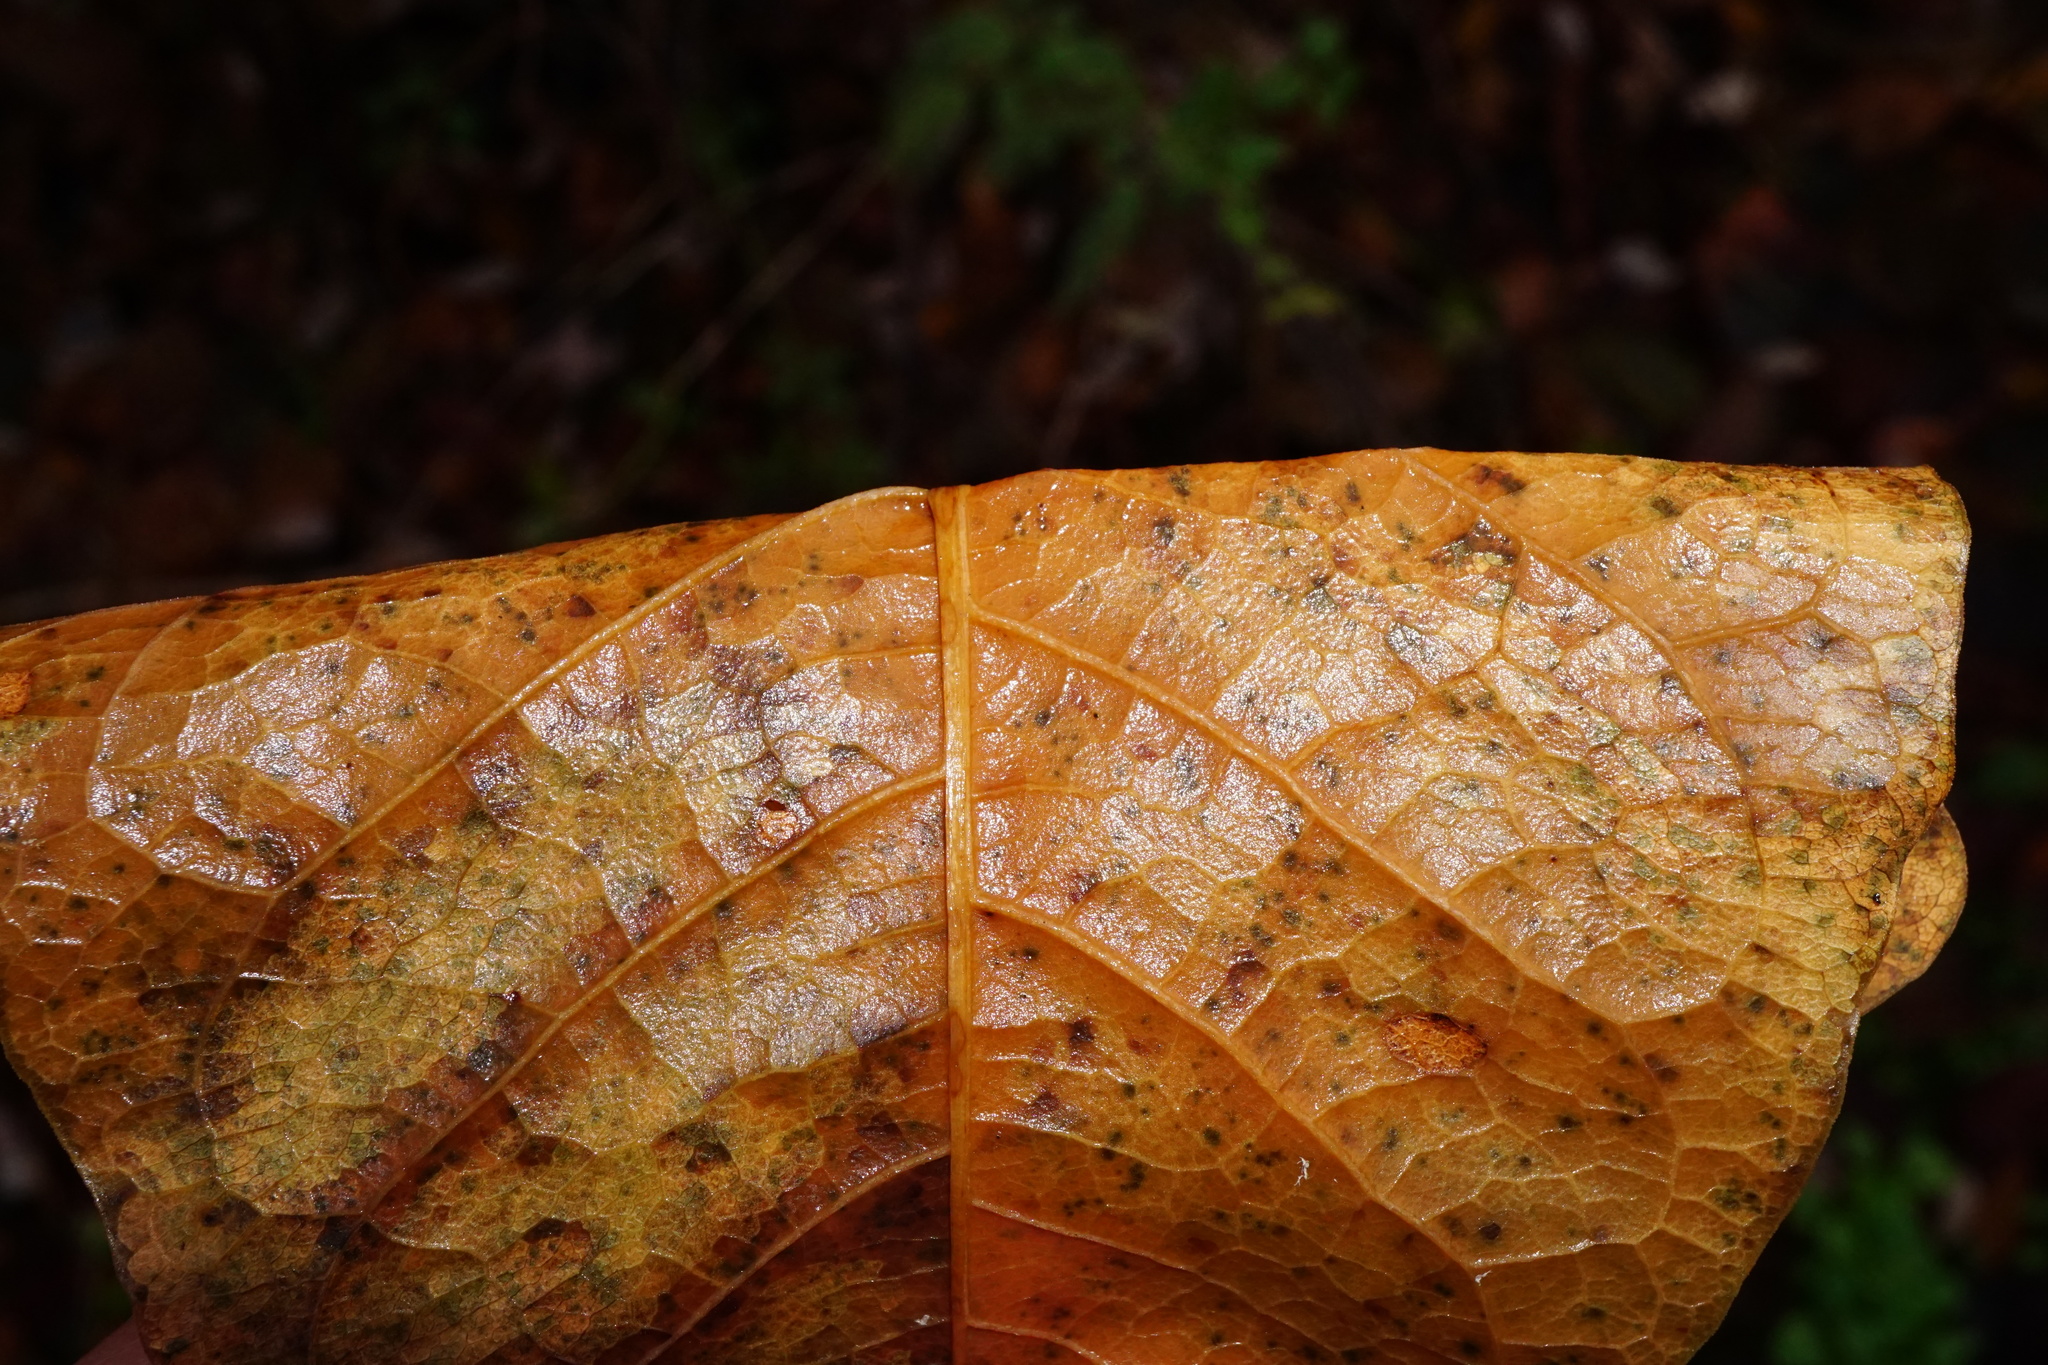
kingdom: Plantae
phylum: Tracheophyta
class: Magnoliopsida
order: Caryophyllales
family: Polygonaceae
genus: Reynoutria
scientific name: Reynoutria japonica
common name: Japanese knotweed
